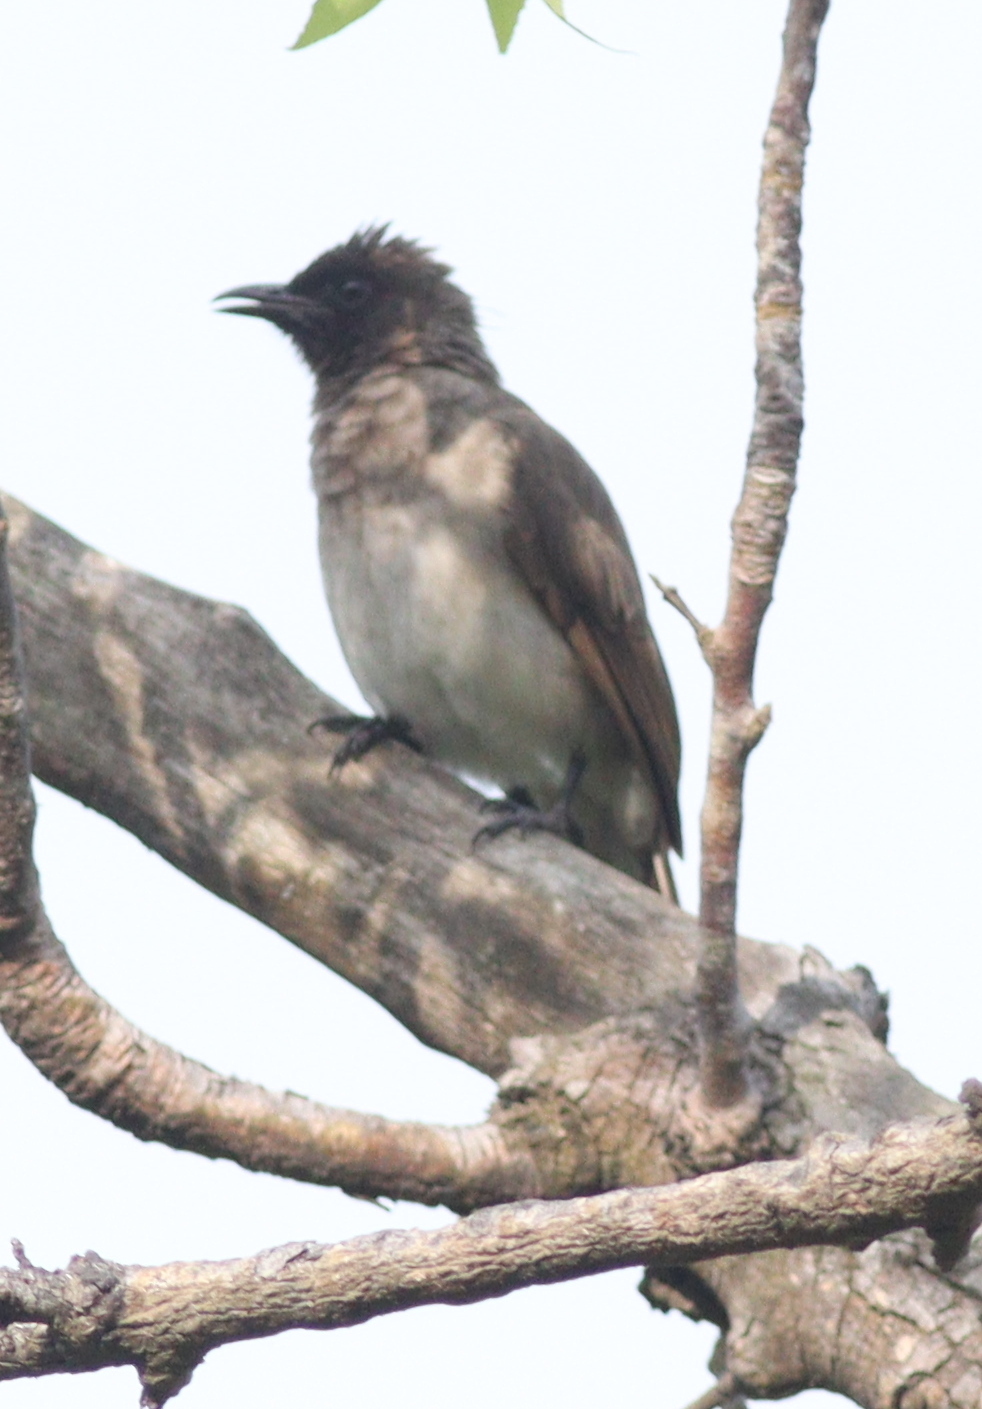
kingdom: Animalia
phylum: Chordata
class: Aves
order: Passeriformes
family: Pycnonotidae
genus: Pycnonotus
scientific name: Pycnonotus barbatus
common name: Common bulbul
